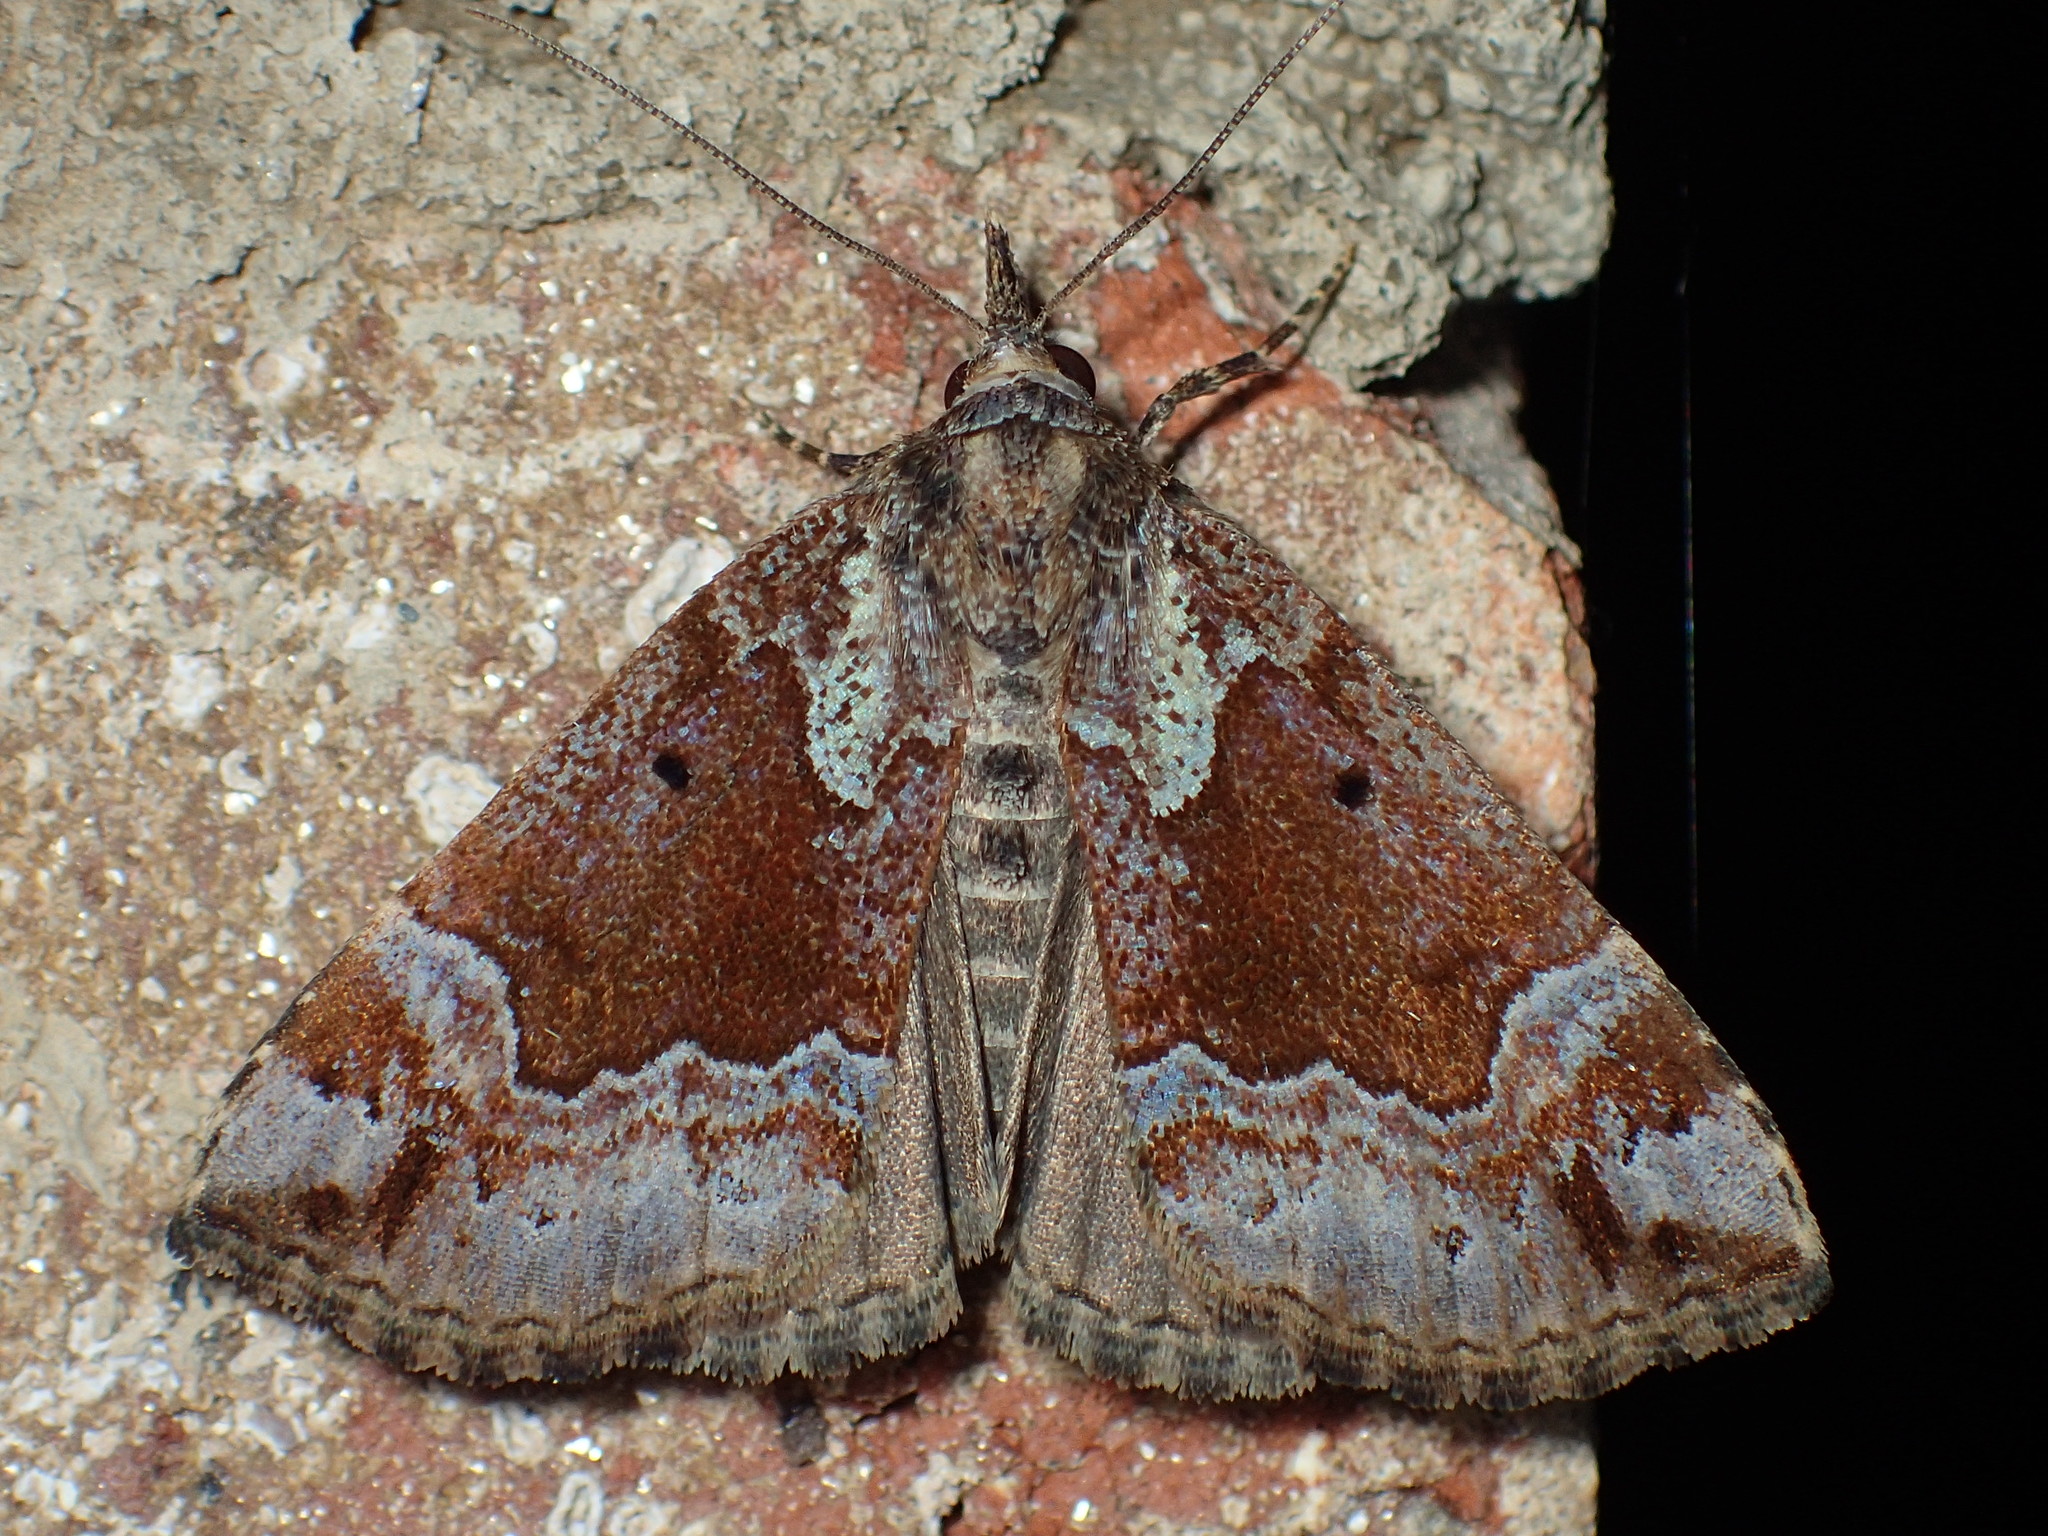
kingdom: Animalia
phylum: Arthropoda
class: Insecta
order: Lepidoptera
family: Erebidae
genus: Hypena
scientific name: Hypena palparia
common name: Mottled bomolocha moth
